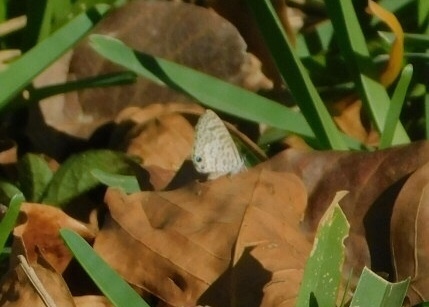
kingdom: Animalia
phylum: Arthropoda
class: Insecta
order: Lepidoptera
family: Lycaenidae
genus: Leptotes
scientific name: Leptotes cassius
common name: Cassius blue
